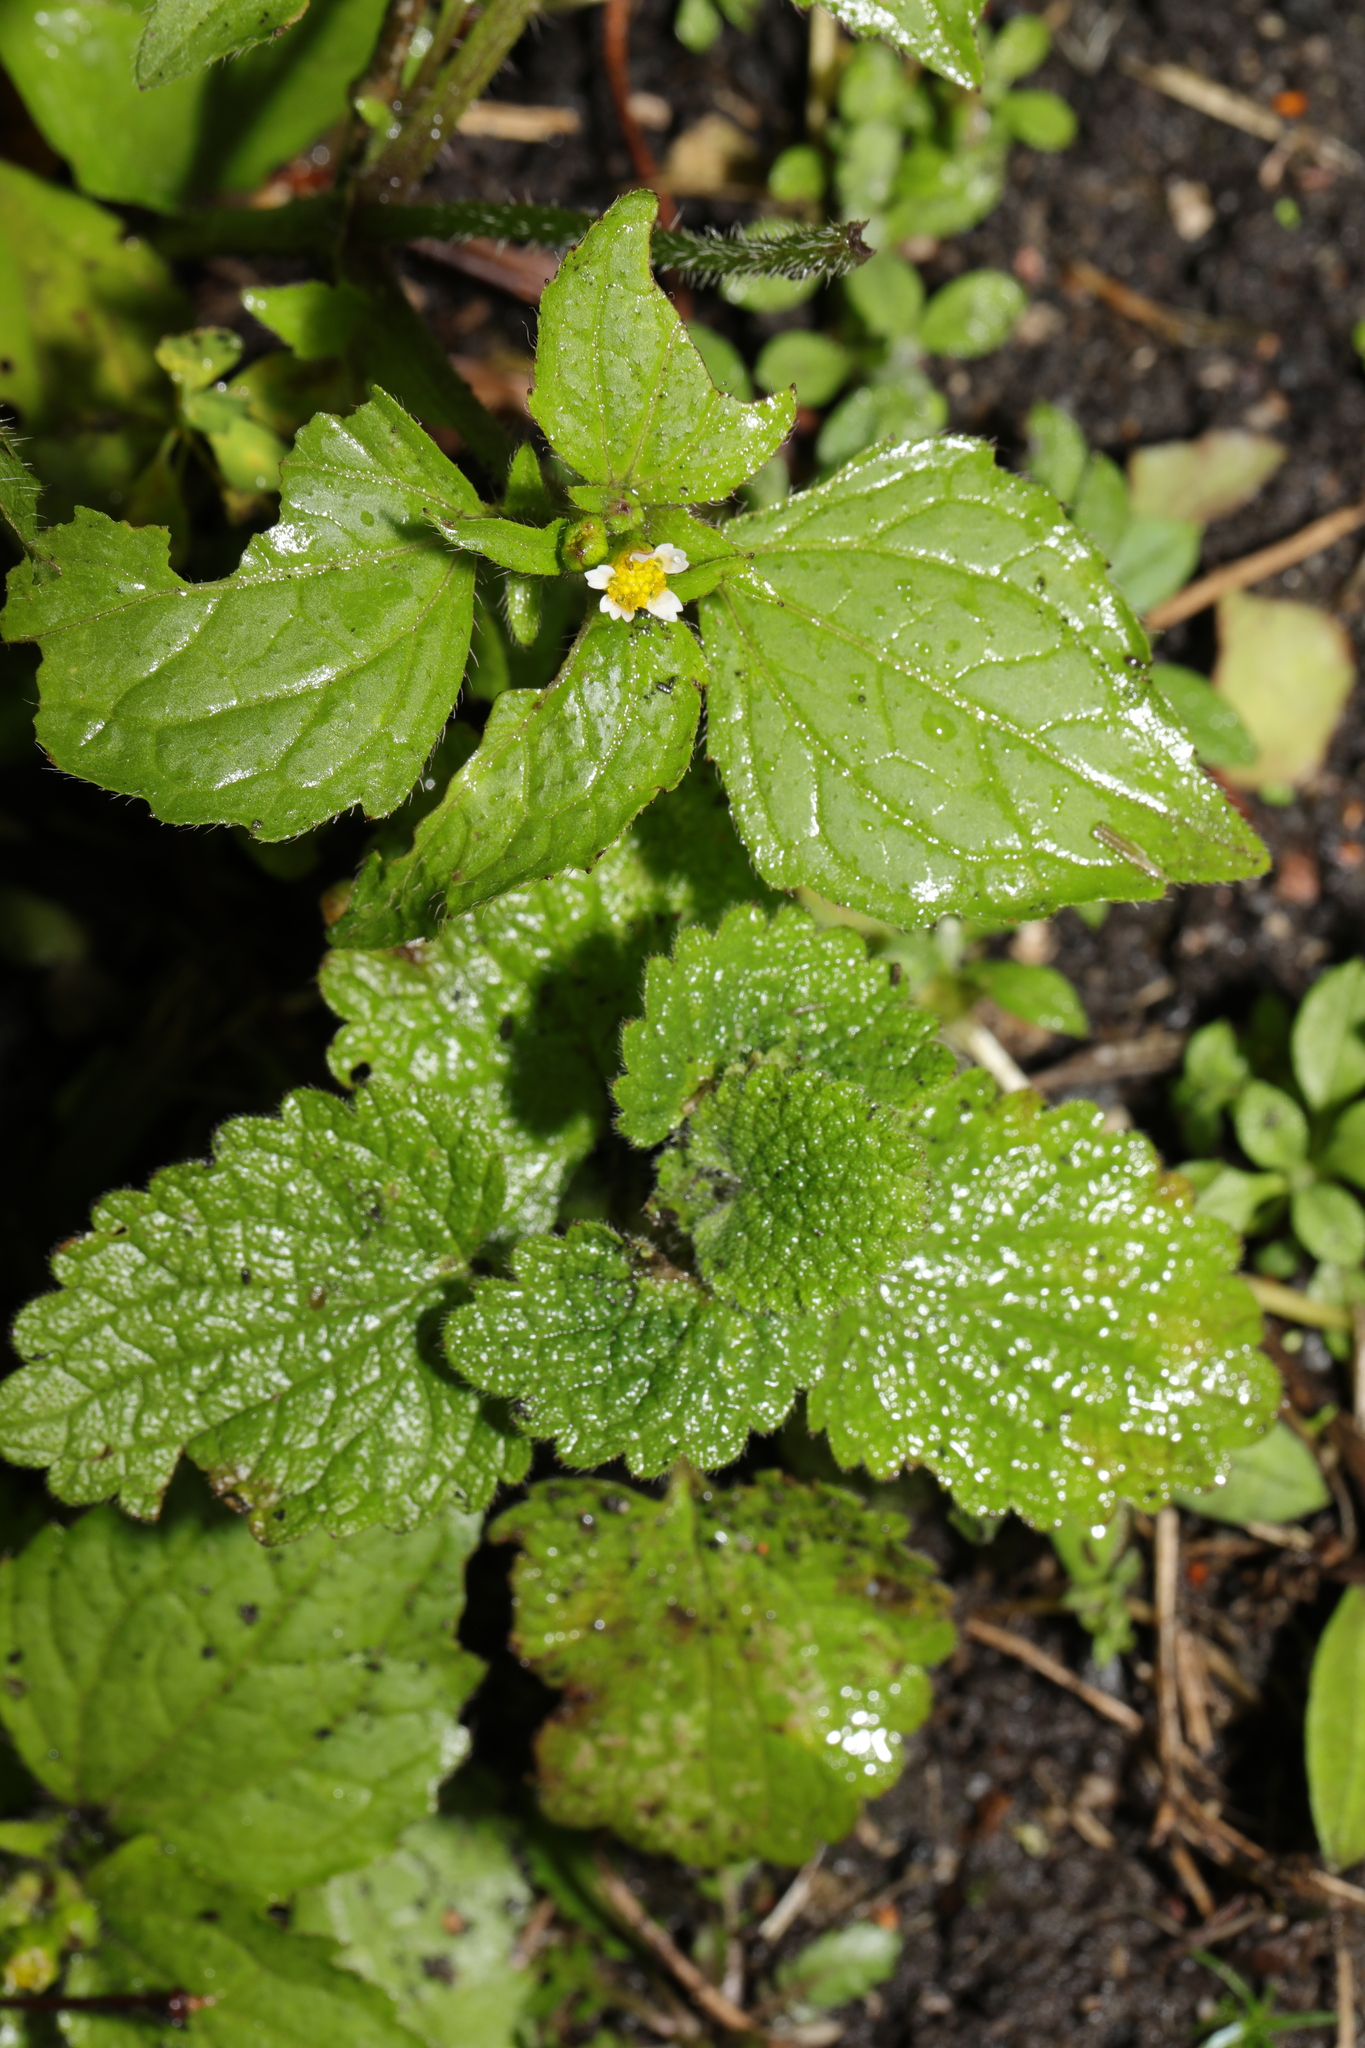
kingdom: Plantae
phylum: Tracheophyta
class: Magnoliopsida
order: Asterales
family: Asteraceae
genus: Galinsoga
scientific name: Galinsoga quadriradiata
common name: Shaggy soldier
